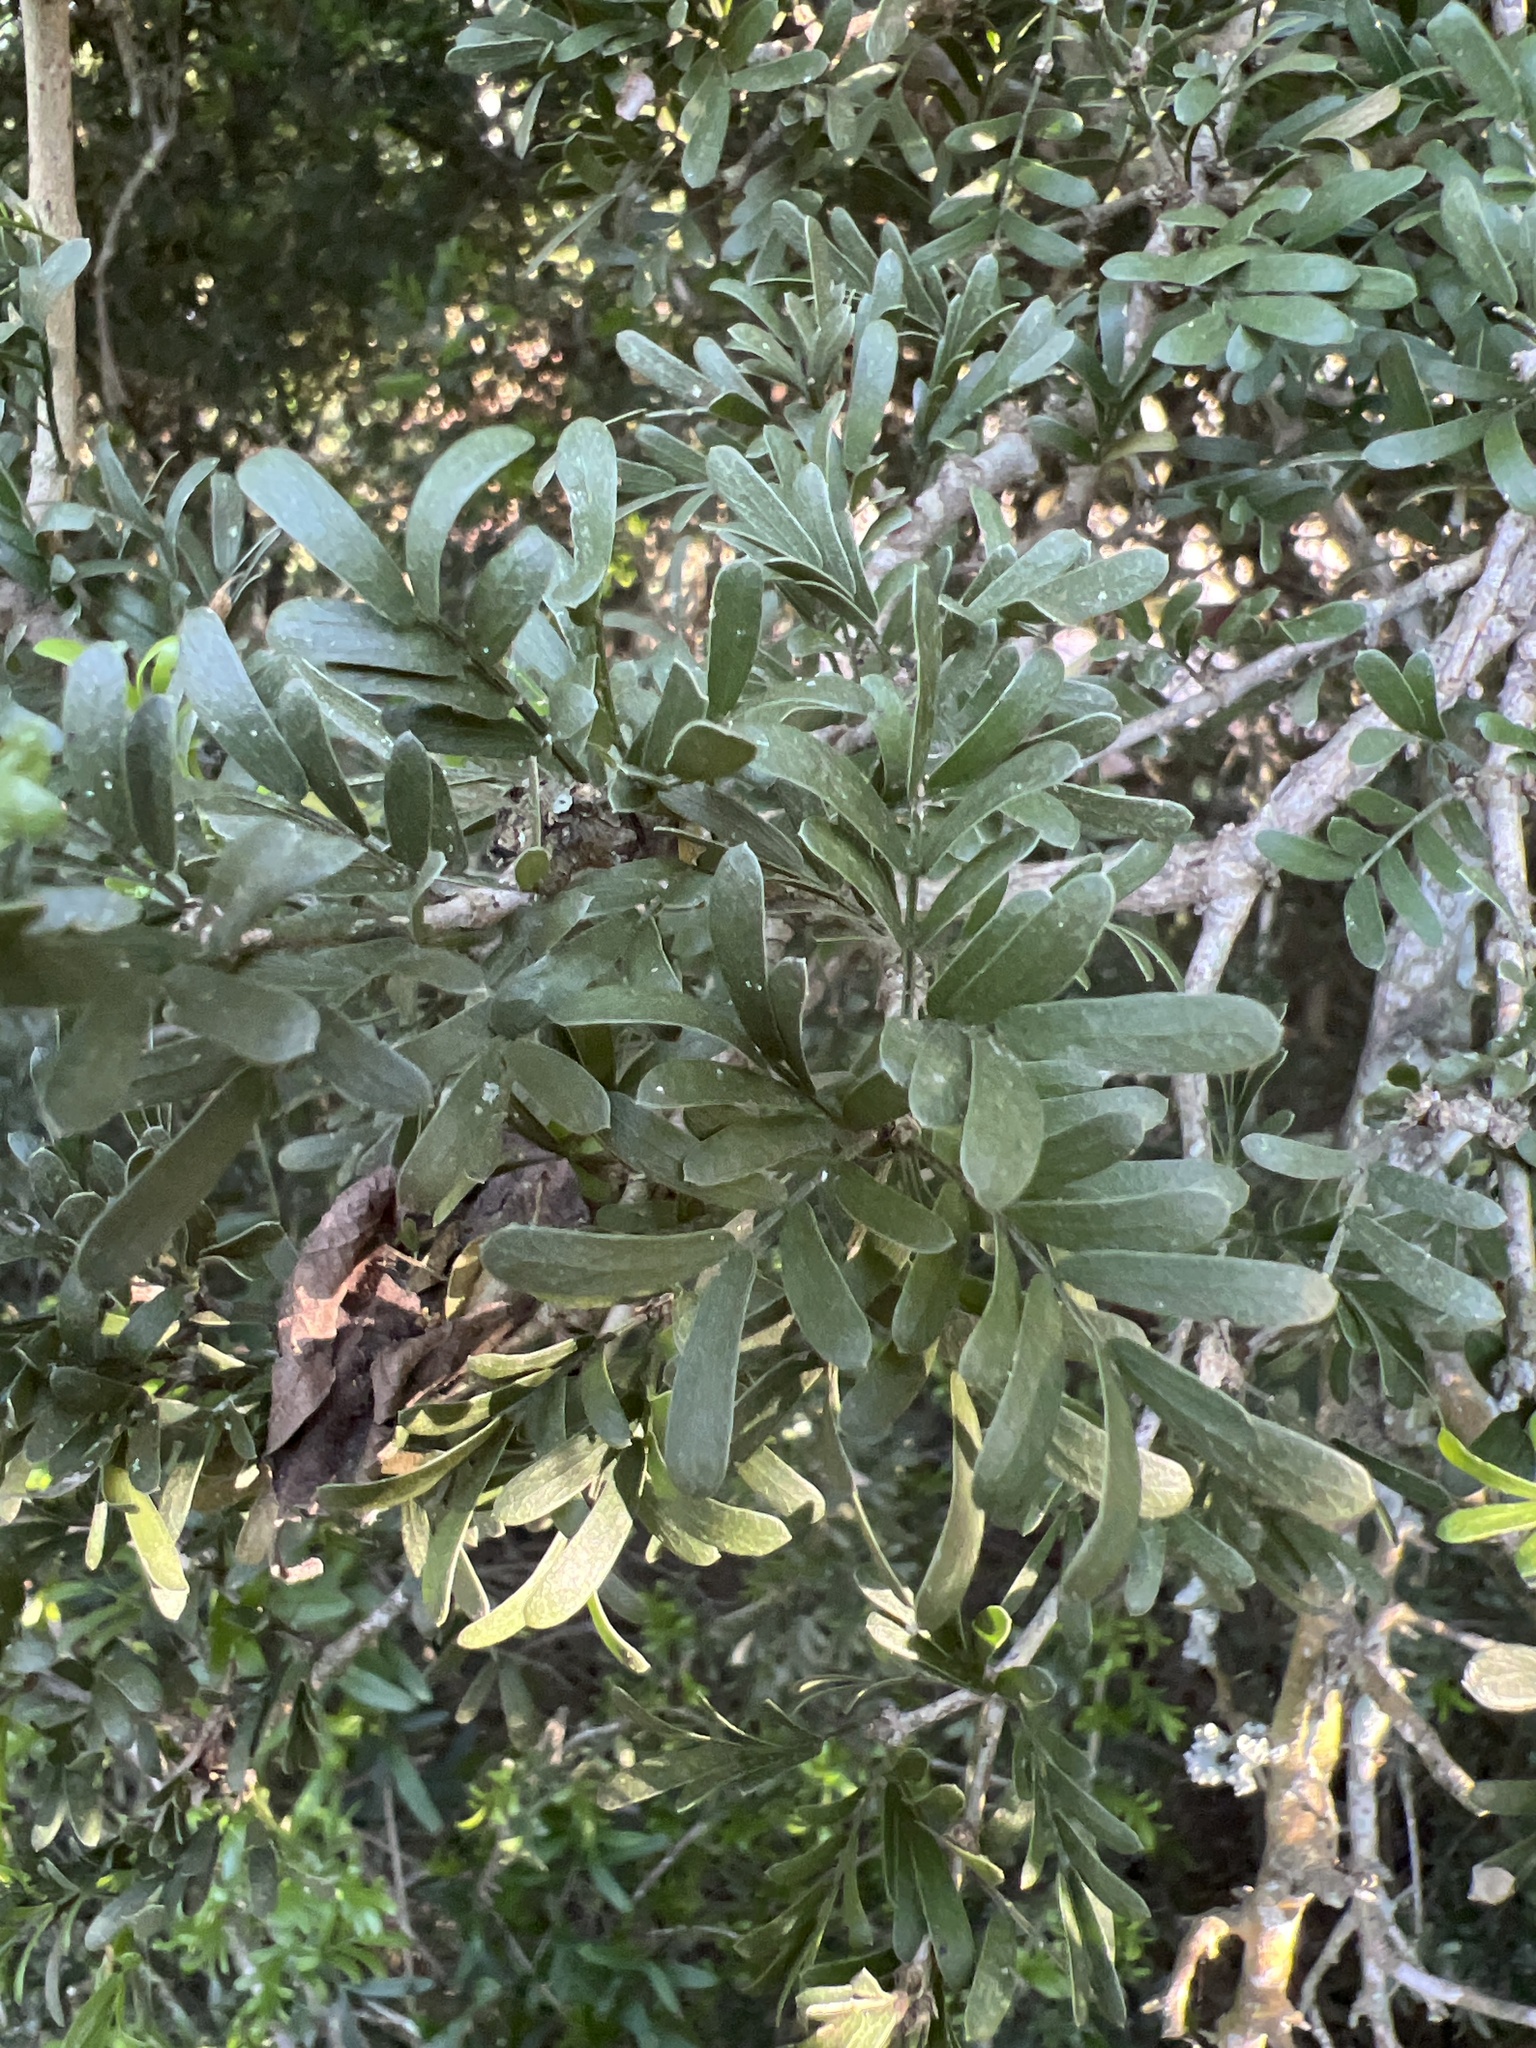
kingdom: Plantae
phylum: Tracheophyta
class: Magnoliopsida
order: Zygophyllales
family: Zygophyllaceae
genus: Porlieria
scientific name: Porlieria angustifolia
